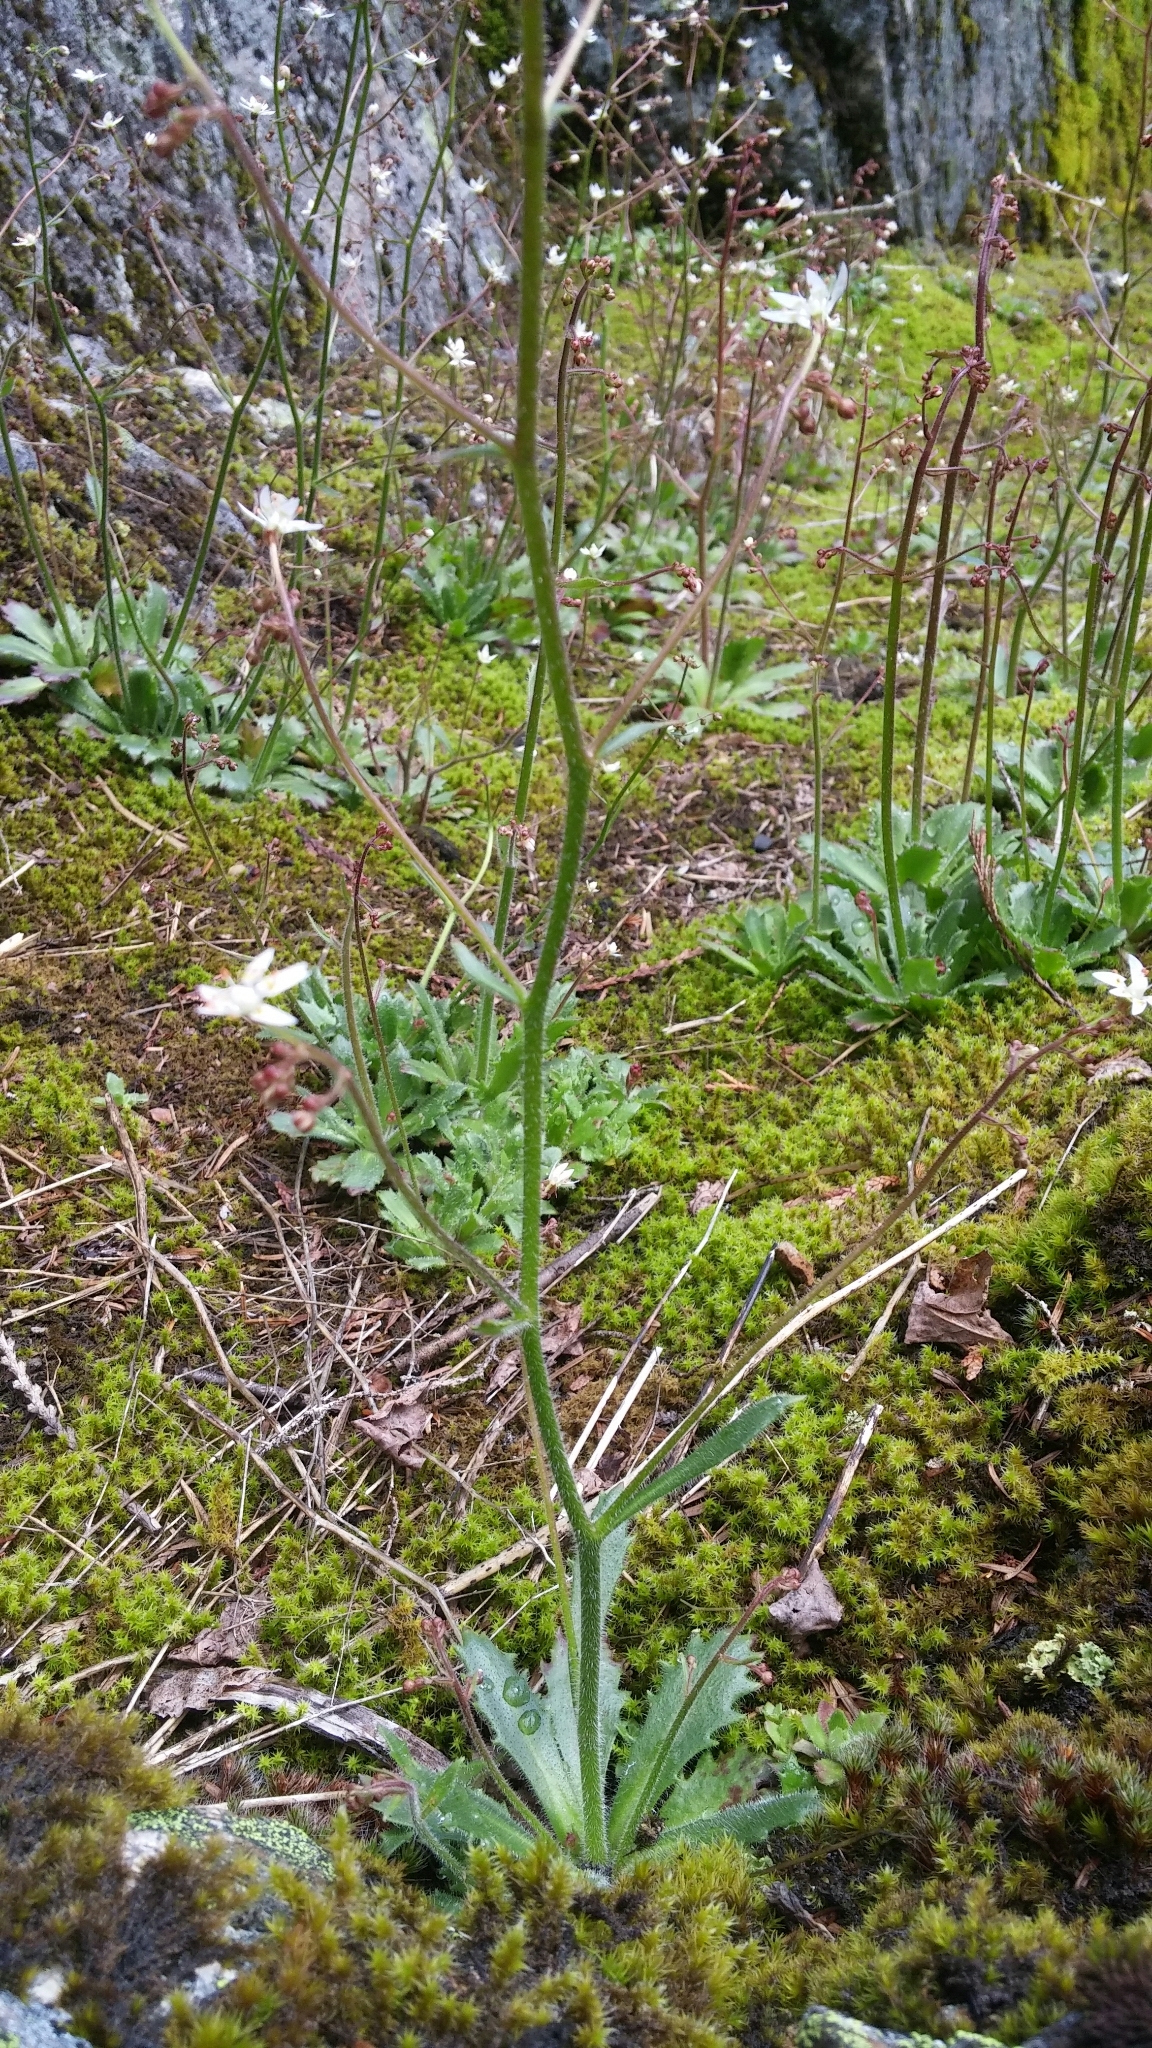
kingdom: Plantae
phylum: Tracheophyta
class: Magnoliopsida
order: Saxifragales
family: Saxifragaceae
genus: Micranthes
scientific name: Micranthes ferruginea
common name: Rusty saxifrage
